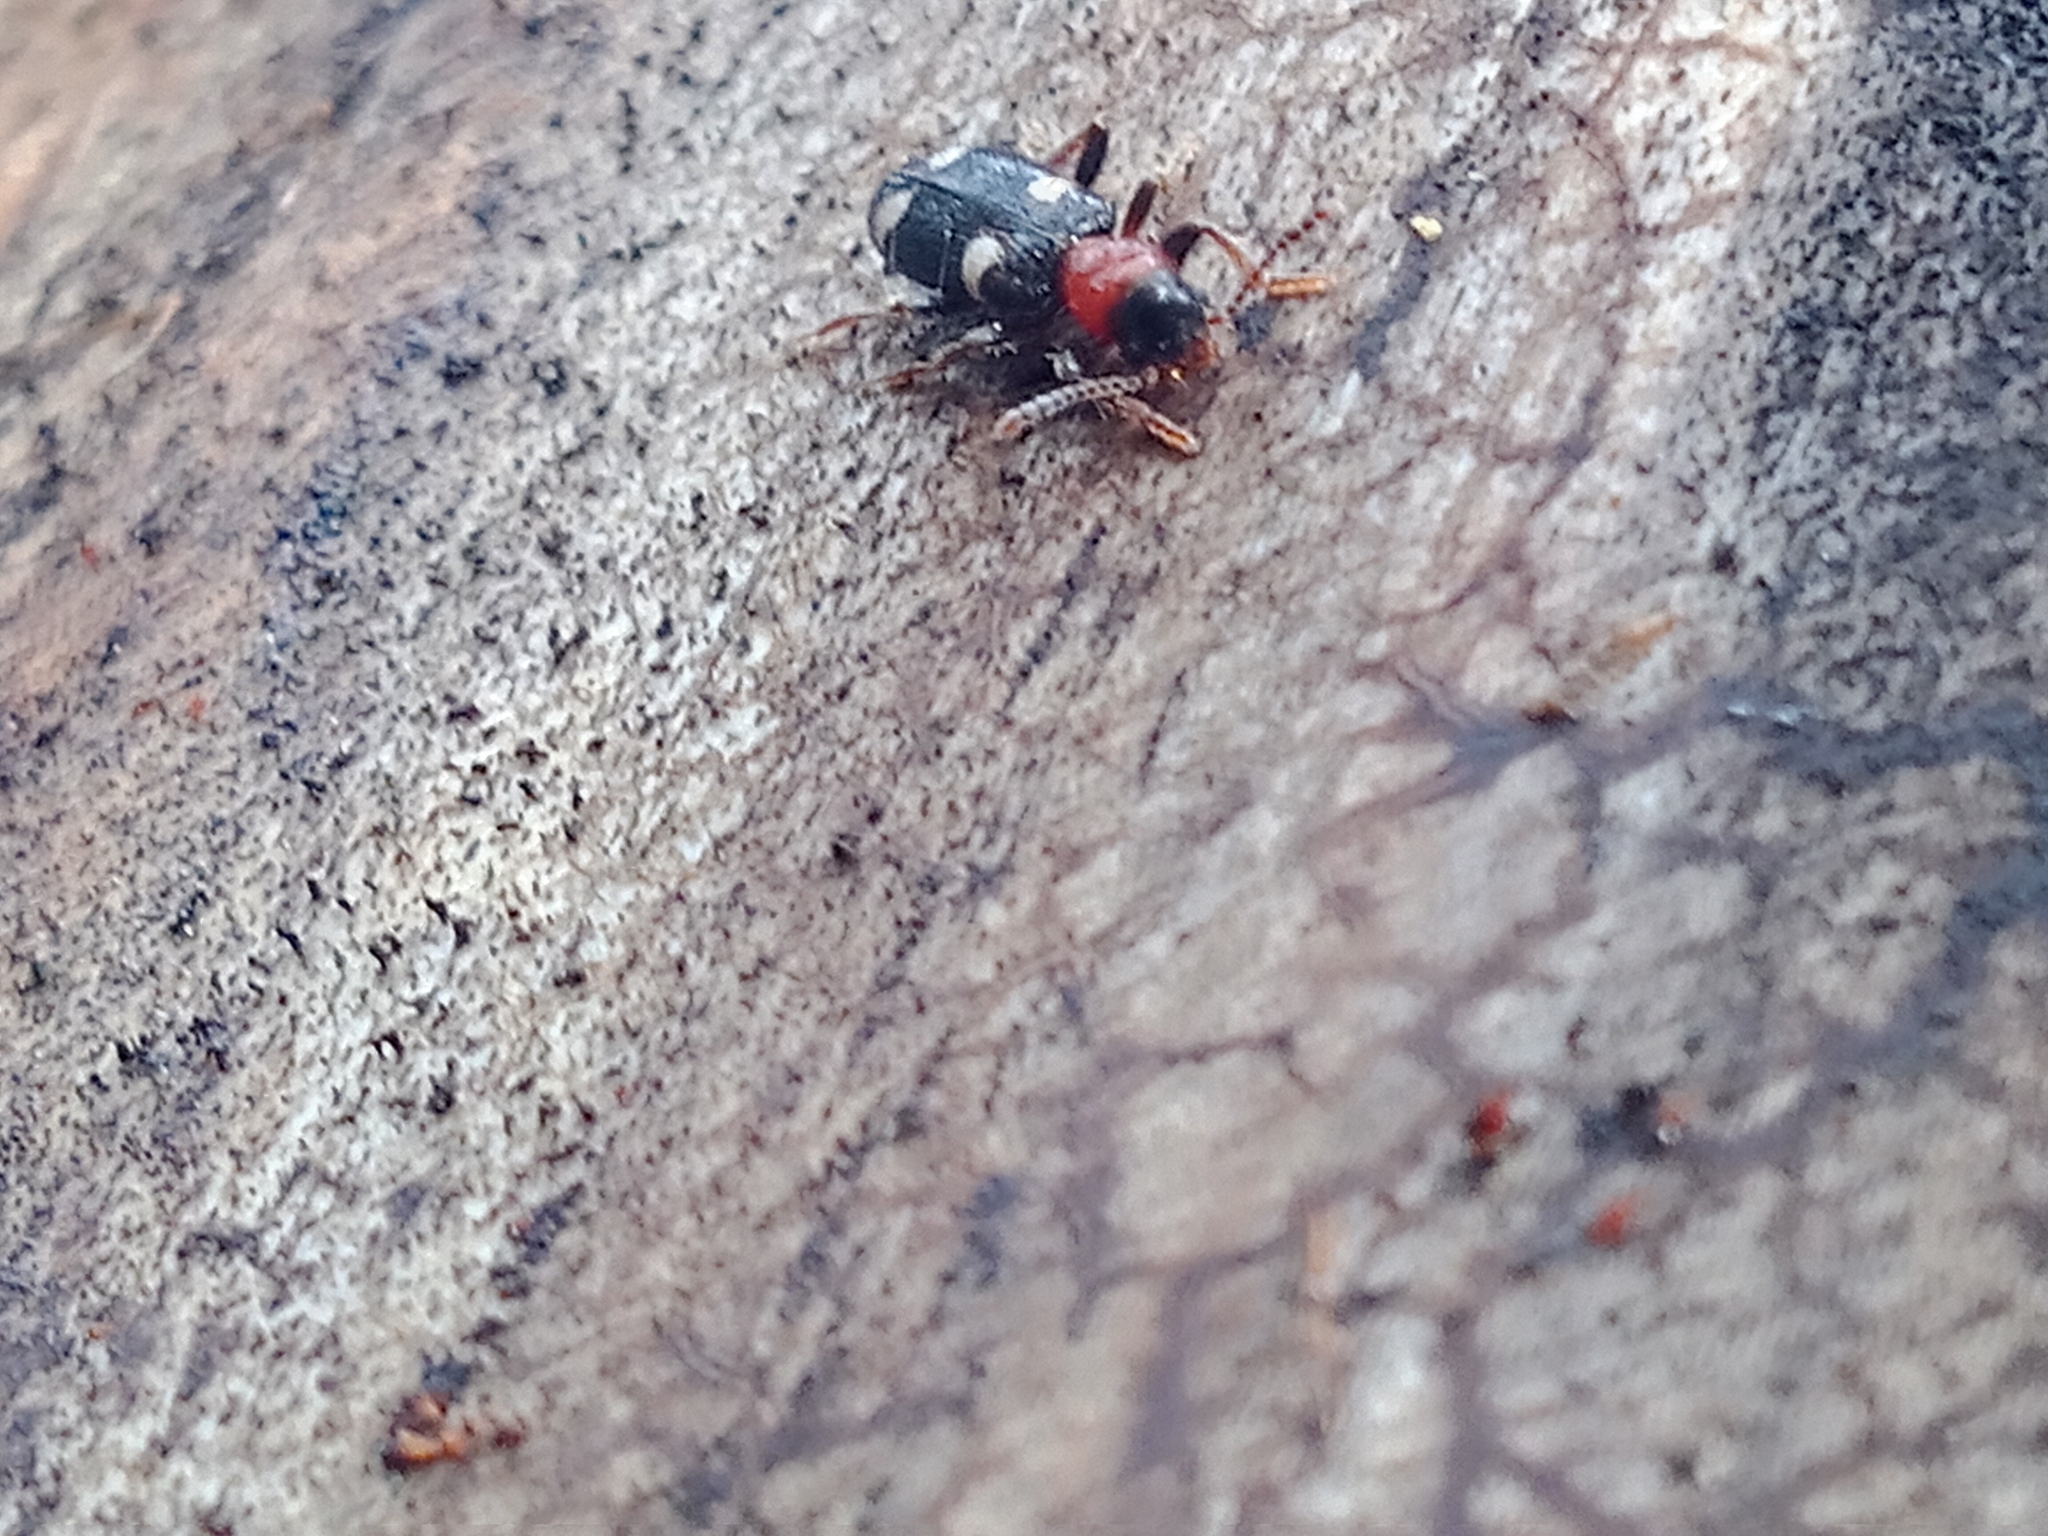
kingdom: Animalia
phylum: Arthropoda
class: Insecta
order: Coleoptera
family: Cleridae
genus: Allonyx
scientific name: Allonyx quadrimaculatus
